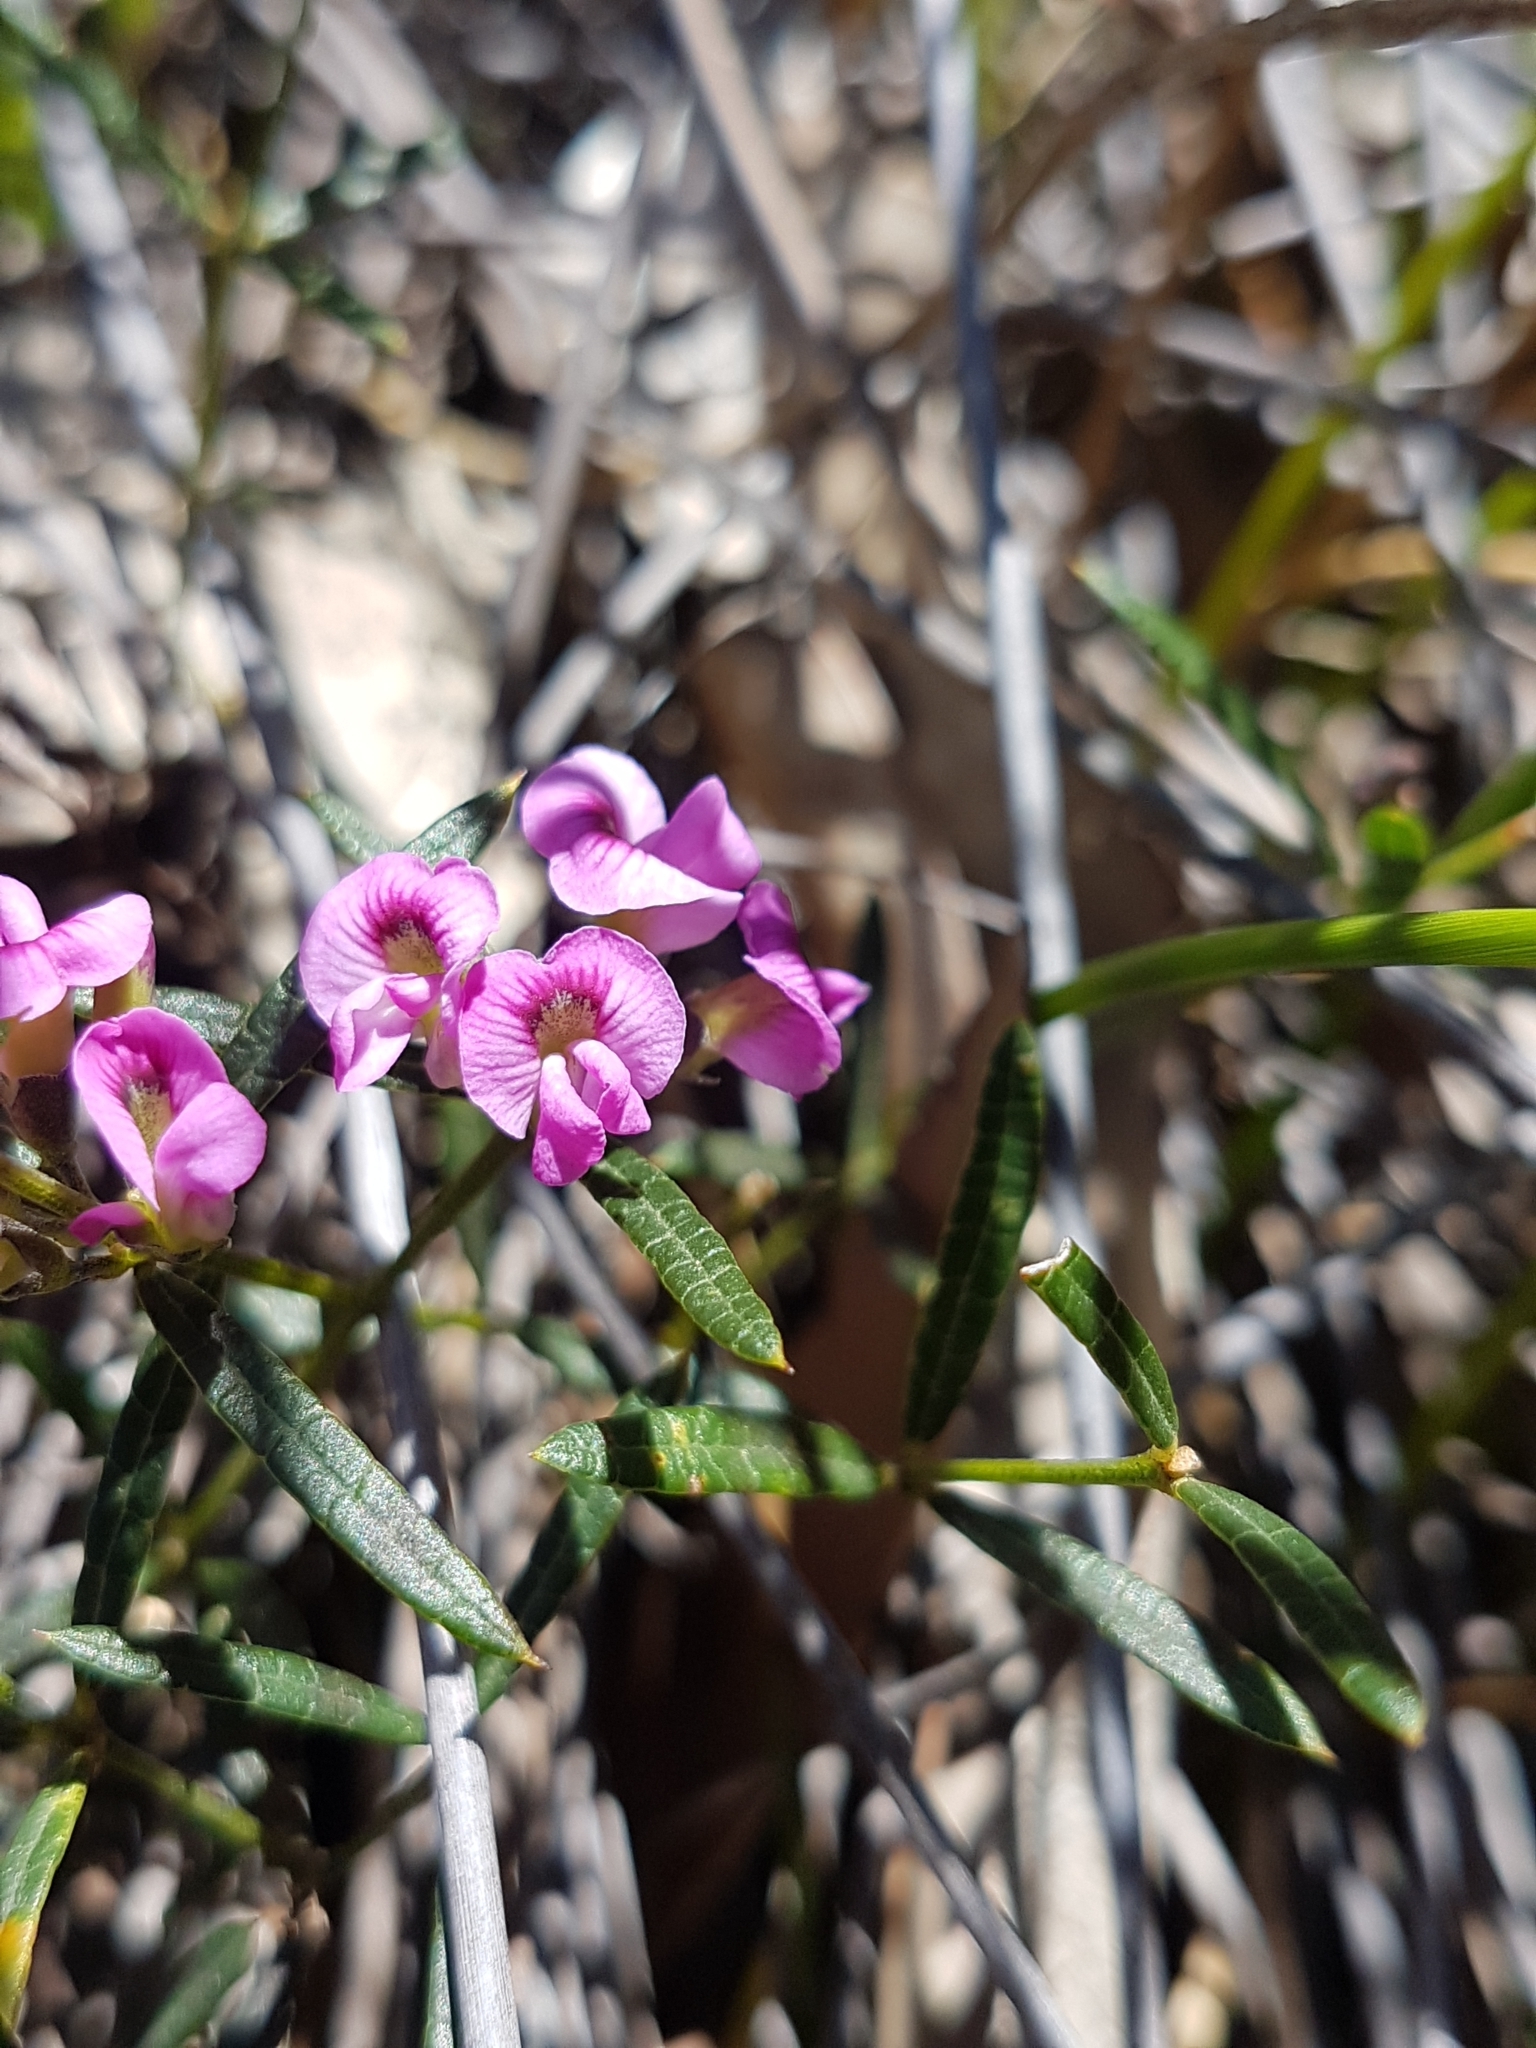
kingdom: Plantae
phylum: Tracheophyta
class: Magnoliopsida
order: Fabales
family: Fabaceae
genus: Mirbelia
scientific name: Mirbelia rubiifolia
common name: Heathy mirbelia
